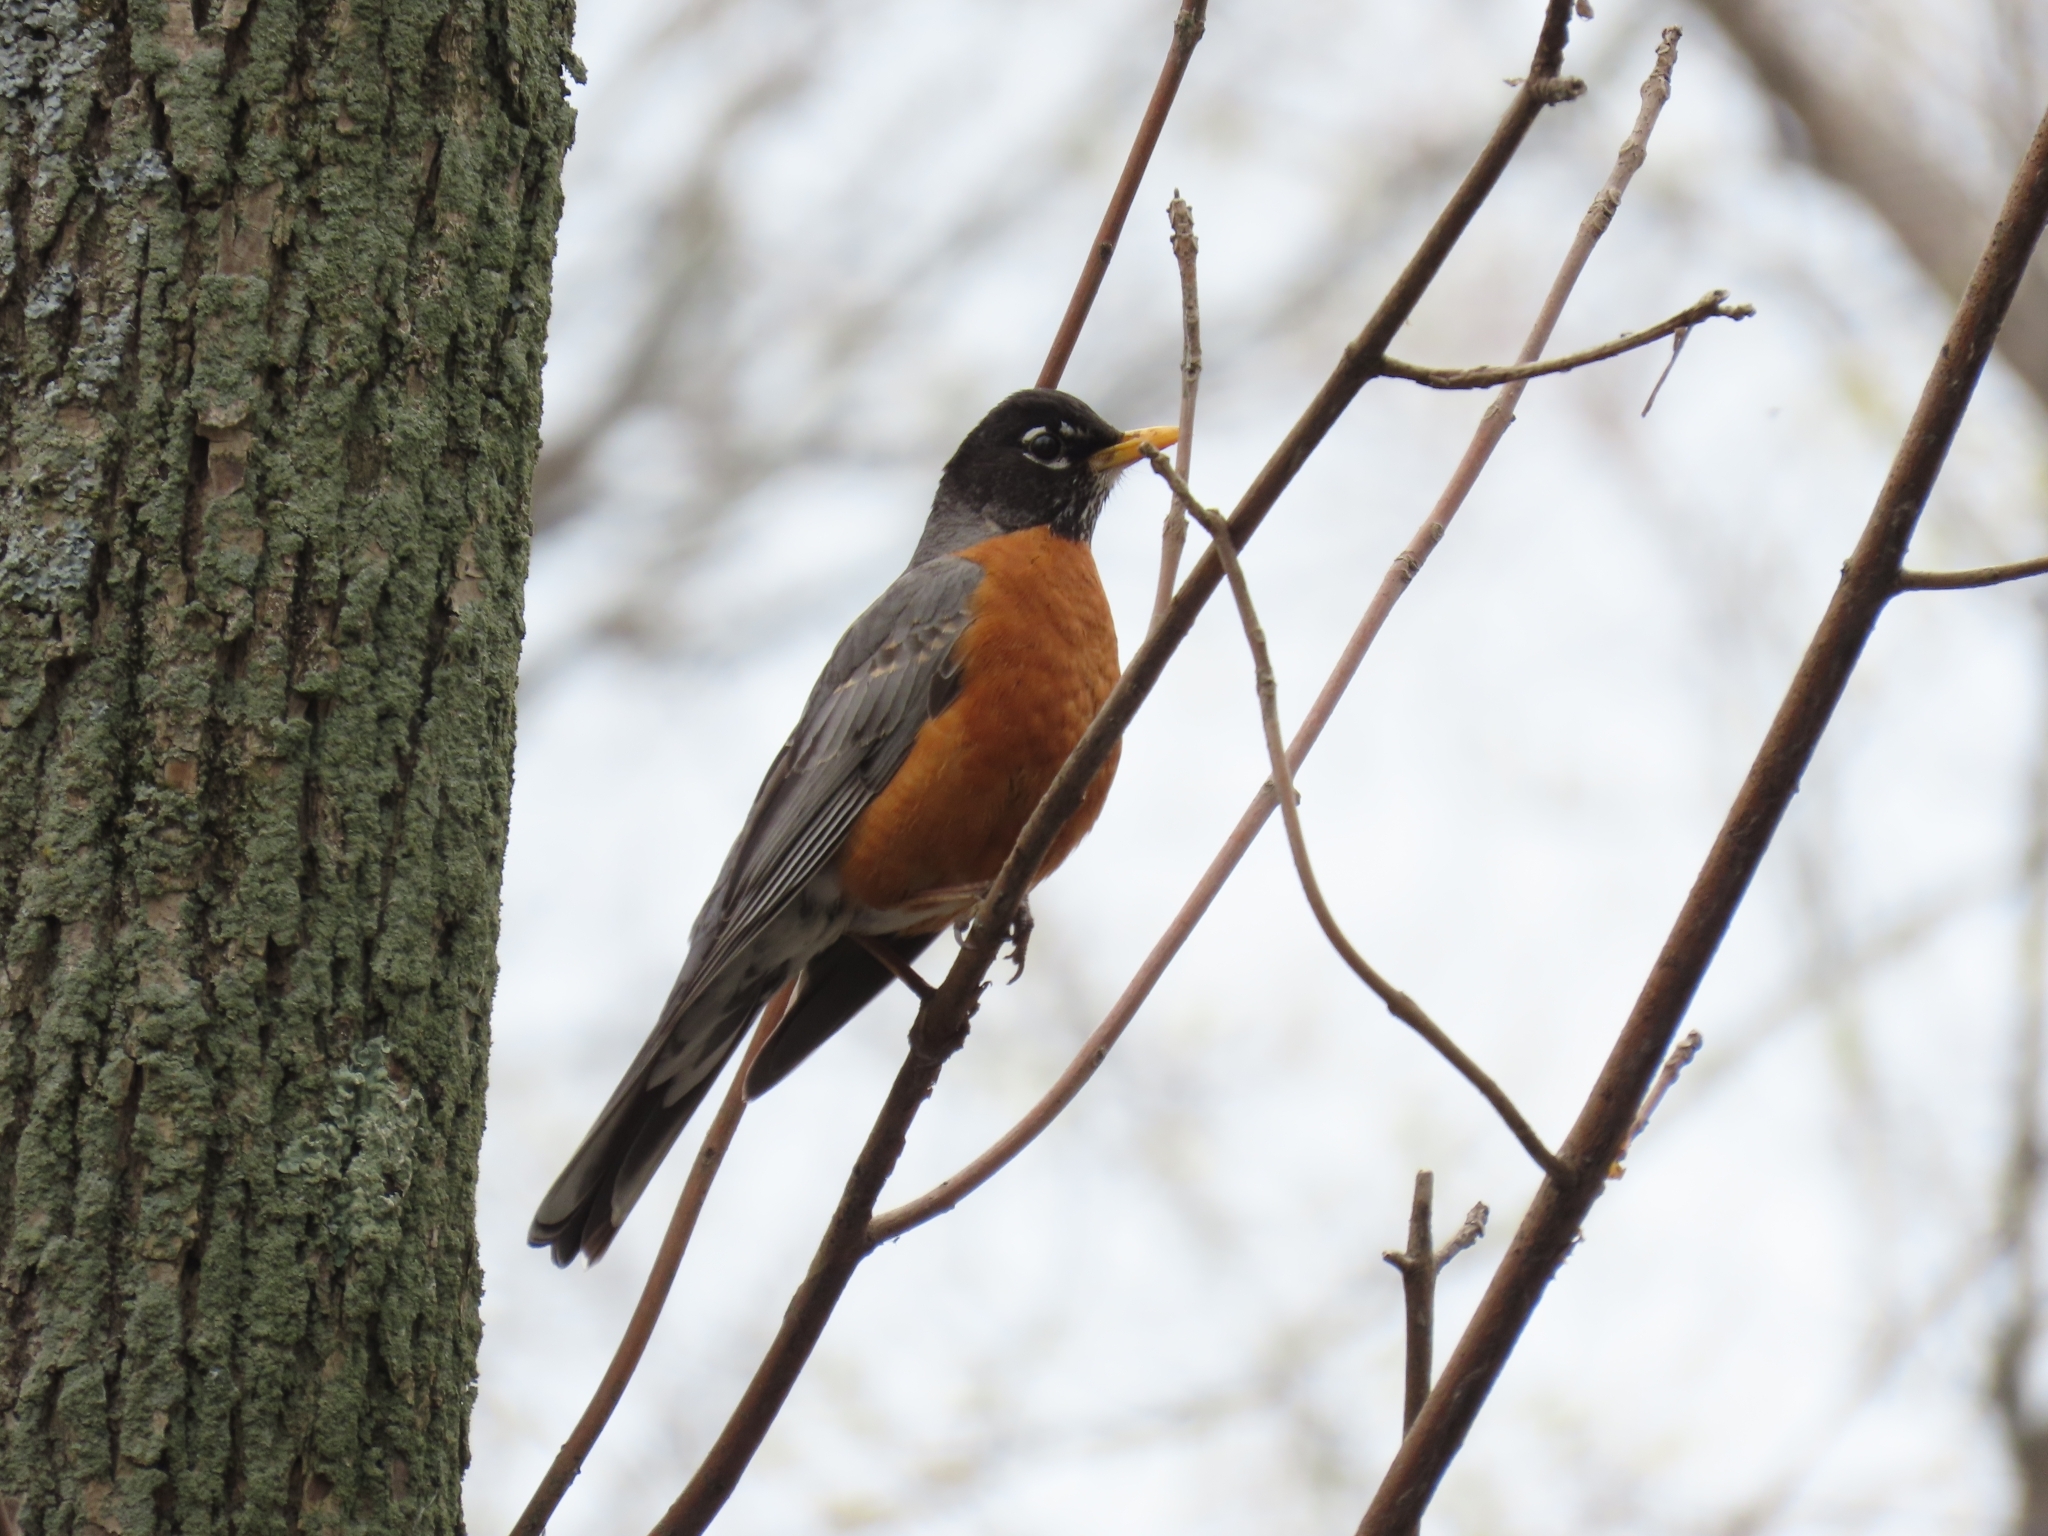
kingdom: Animalia
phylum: Chordata
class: Aves
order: Passeriformes
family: Turdidae
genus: Turdus
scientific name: Turdus migratorius
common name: American robin
